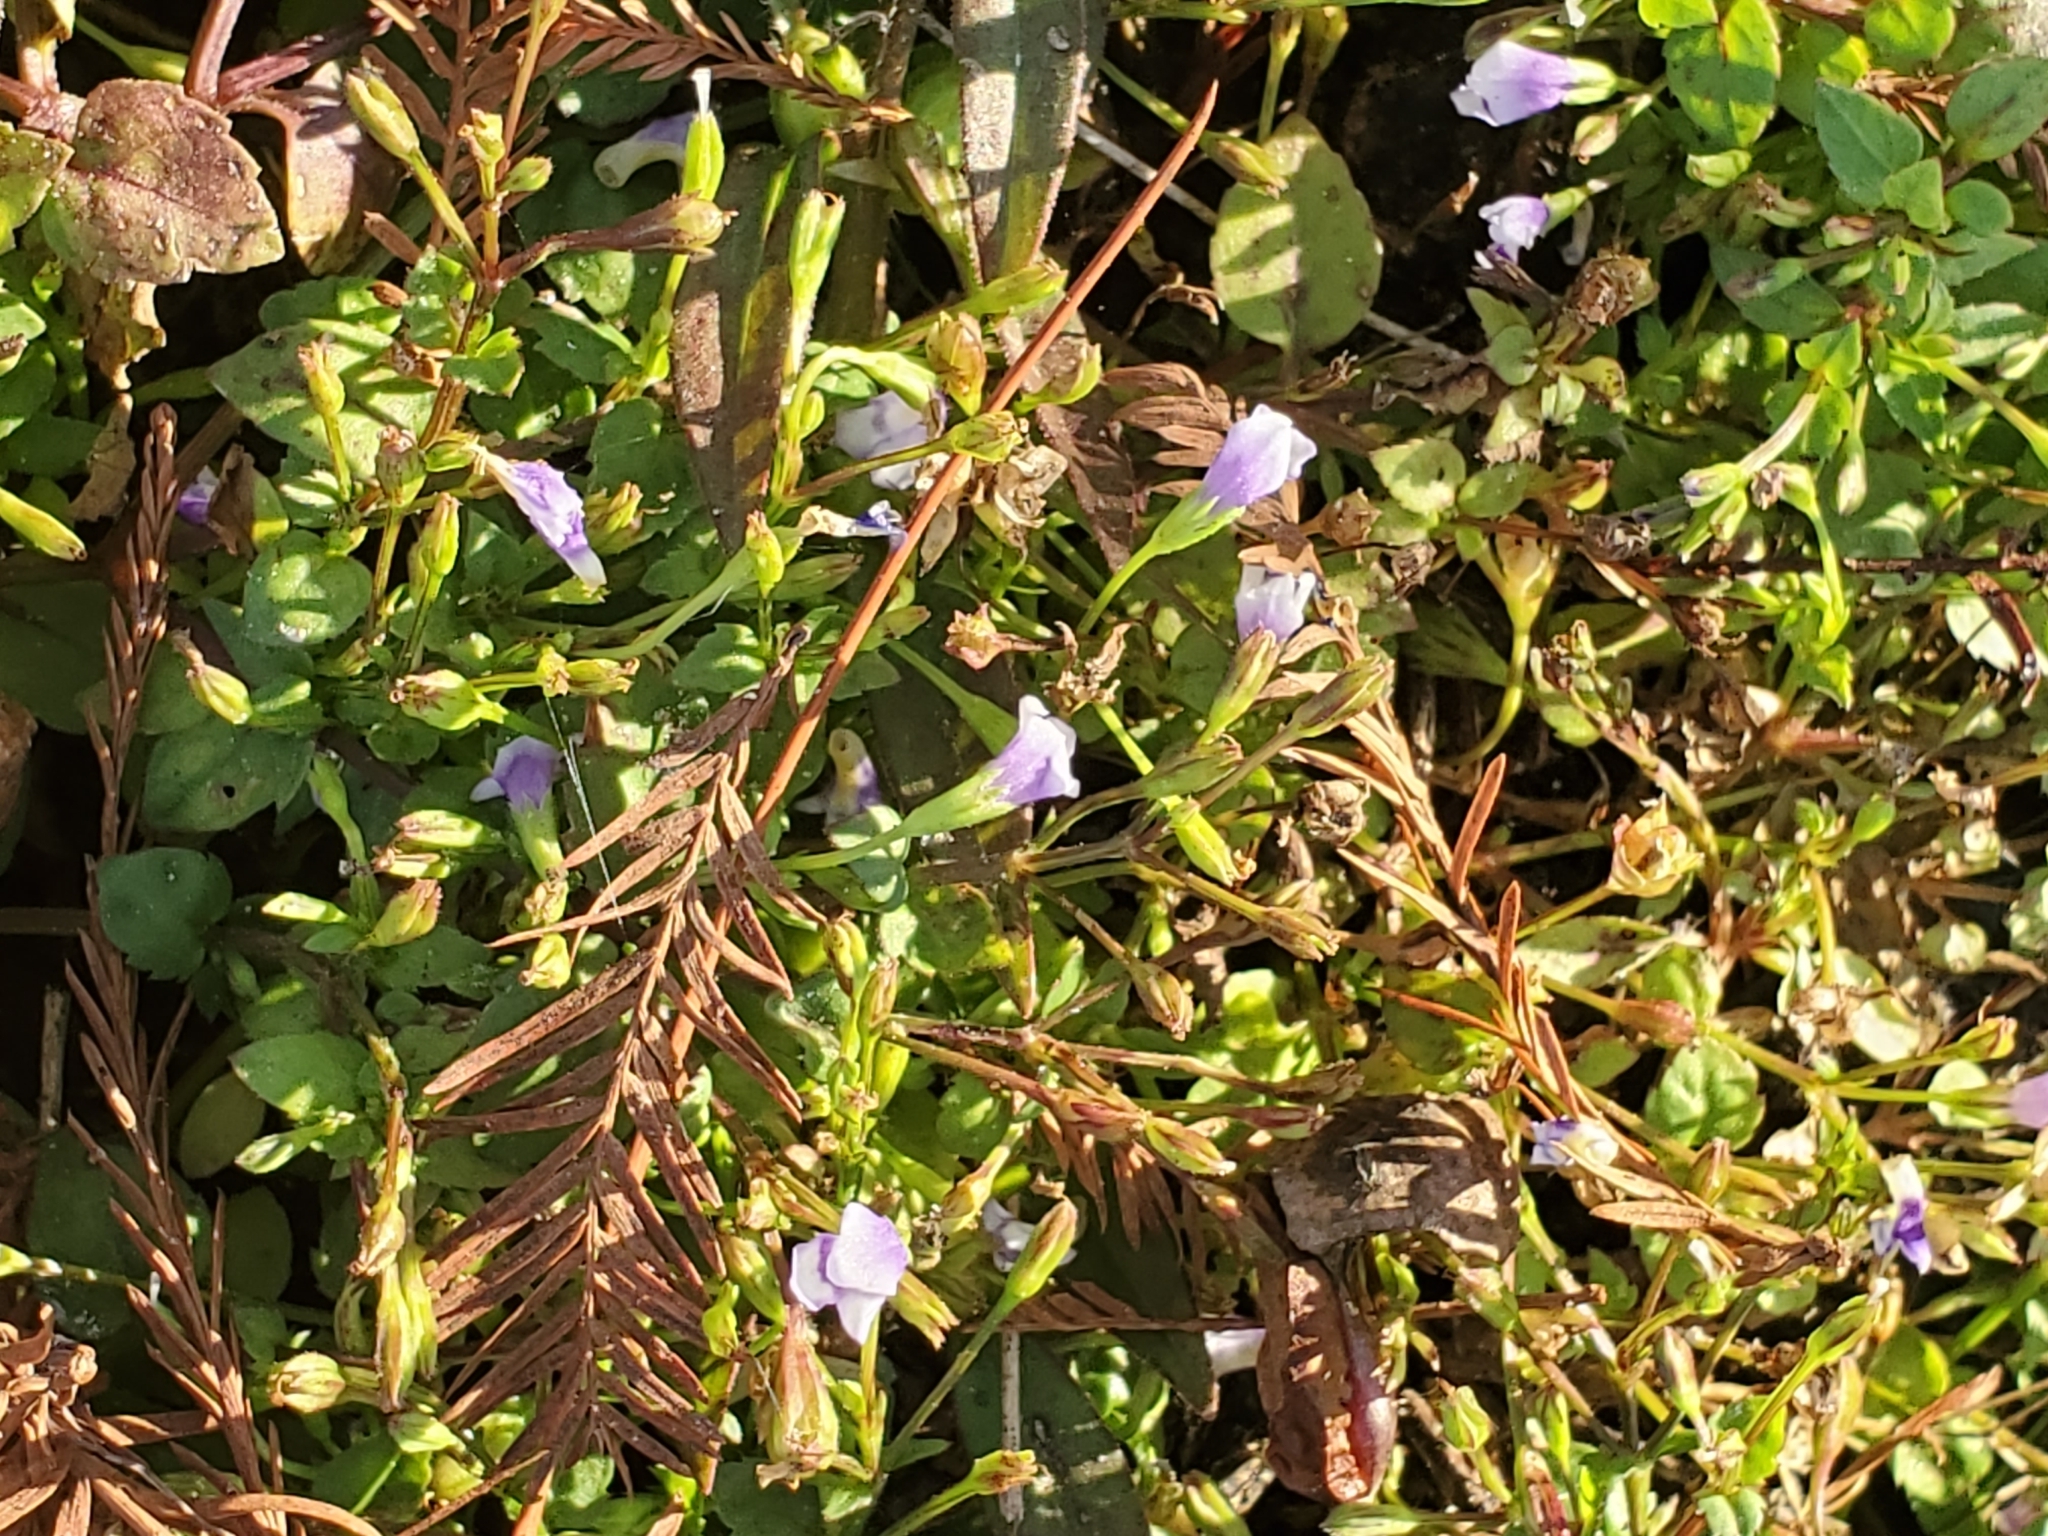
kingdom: Plantae
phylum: Tracheophyta
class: Magnoliopsida
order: Lamiales
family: Mazaceae
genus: Mazus
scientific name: Mazus pumilus
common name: Japanese mazus
